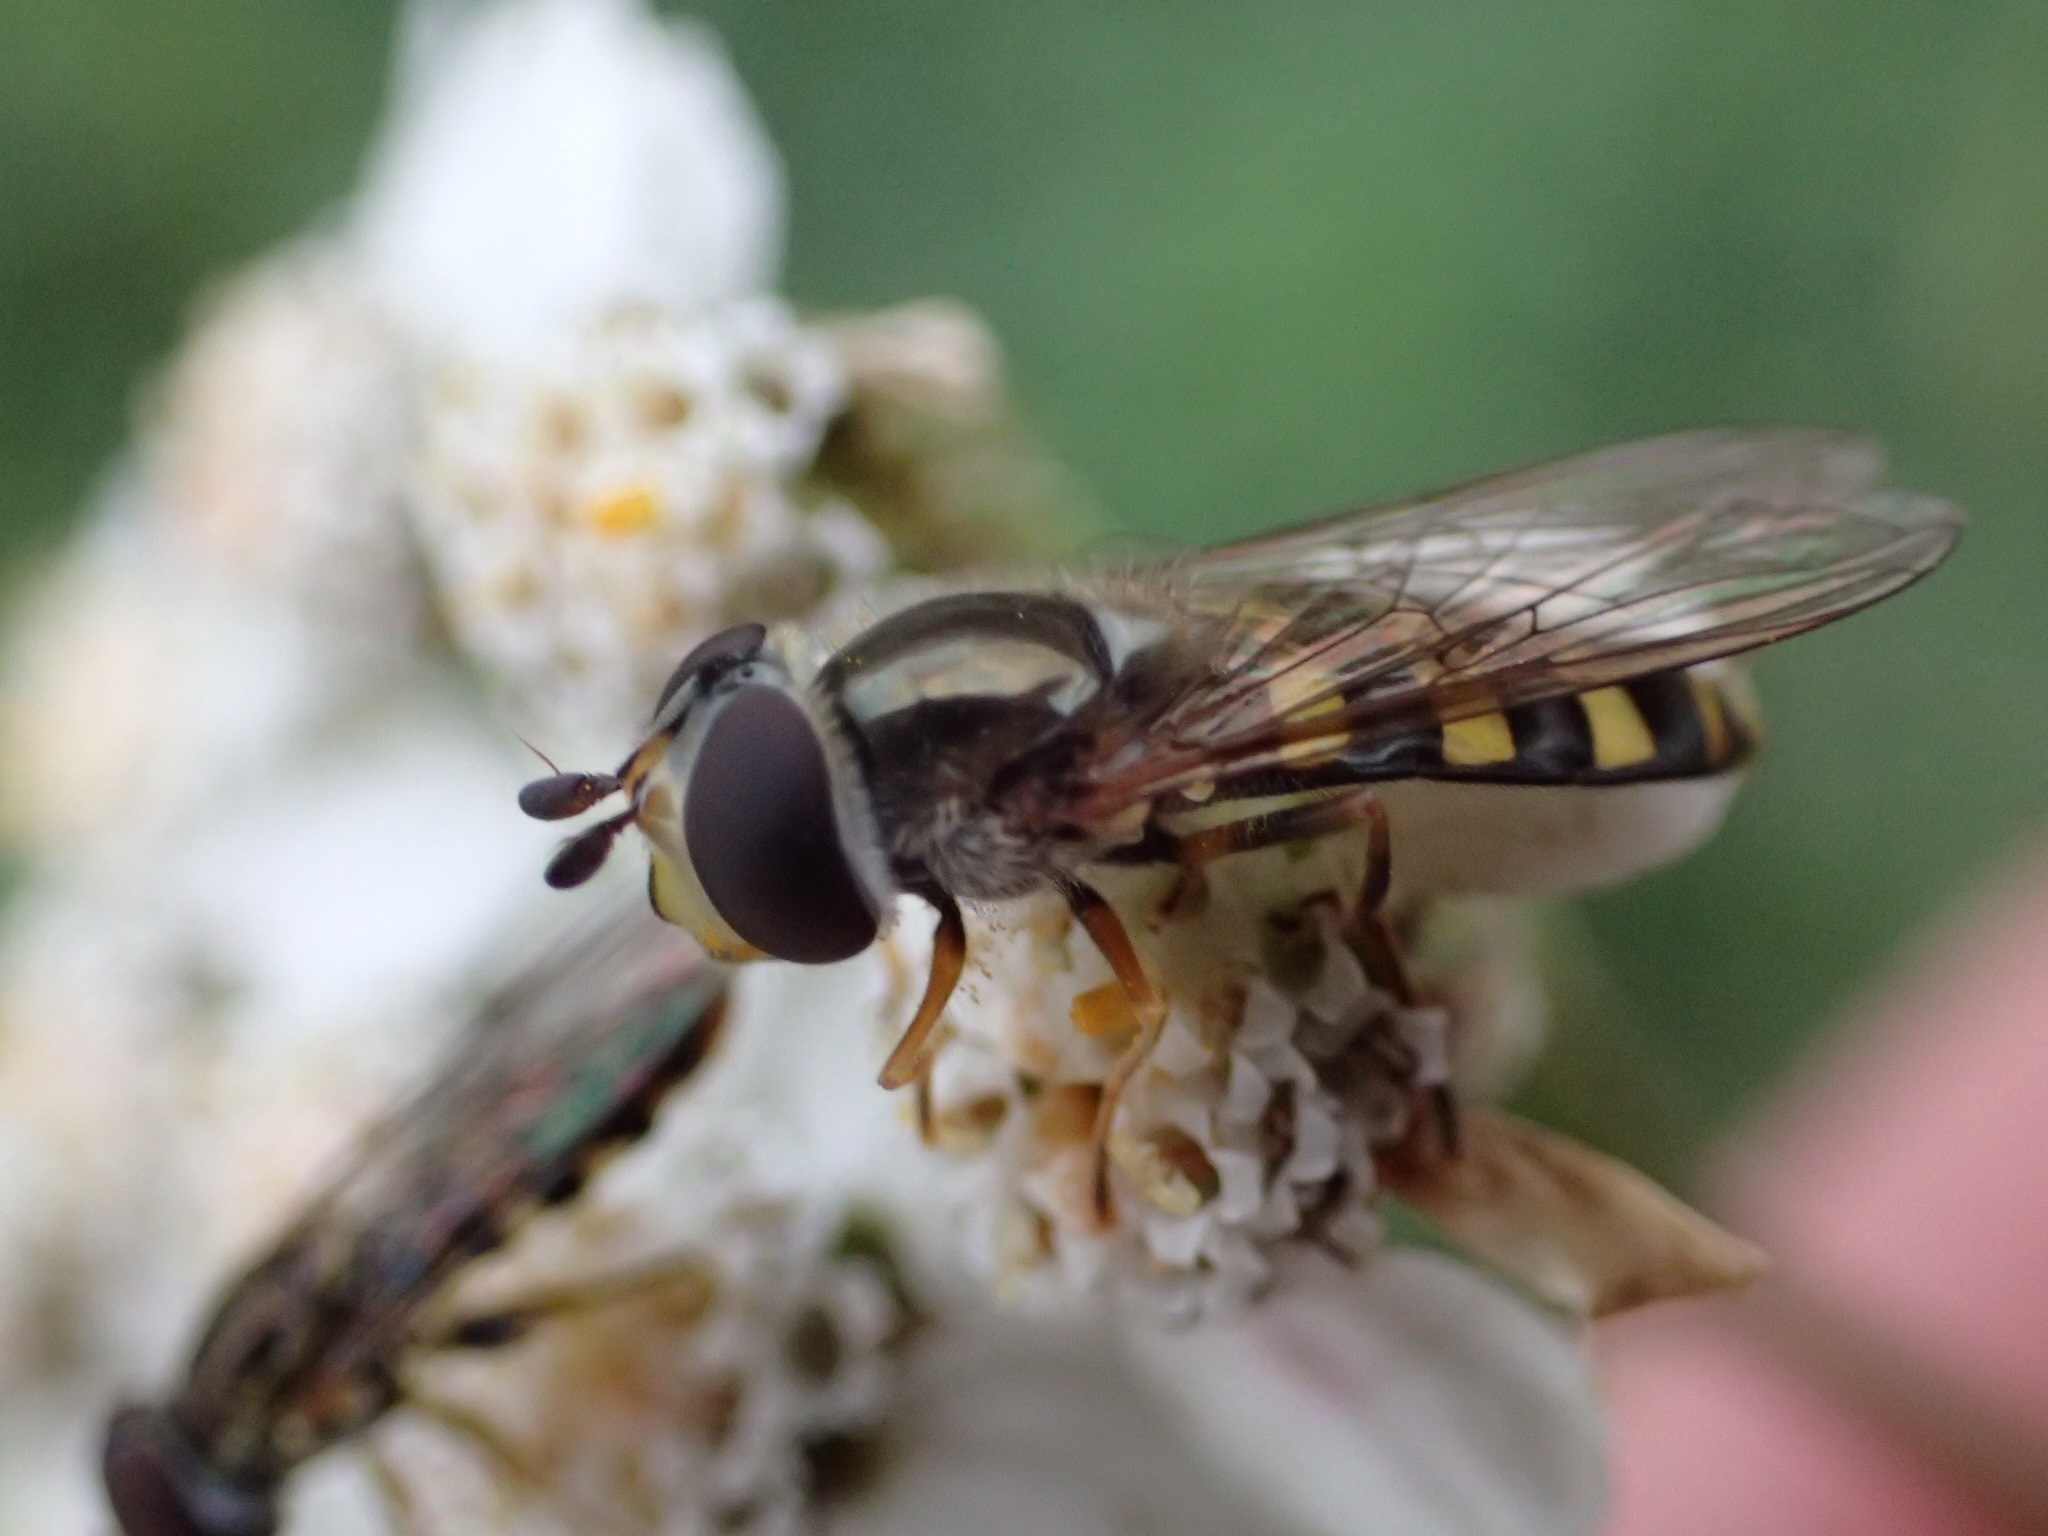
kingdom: Animalia
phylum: Arthropoda
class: Insecta
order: Diptera
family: Syrphidae
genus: Eupeodes
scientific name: Eupeodes
